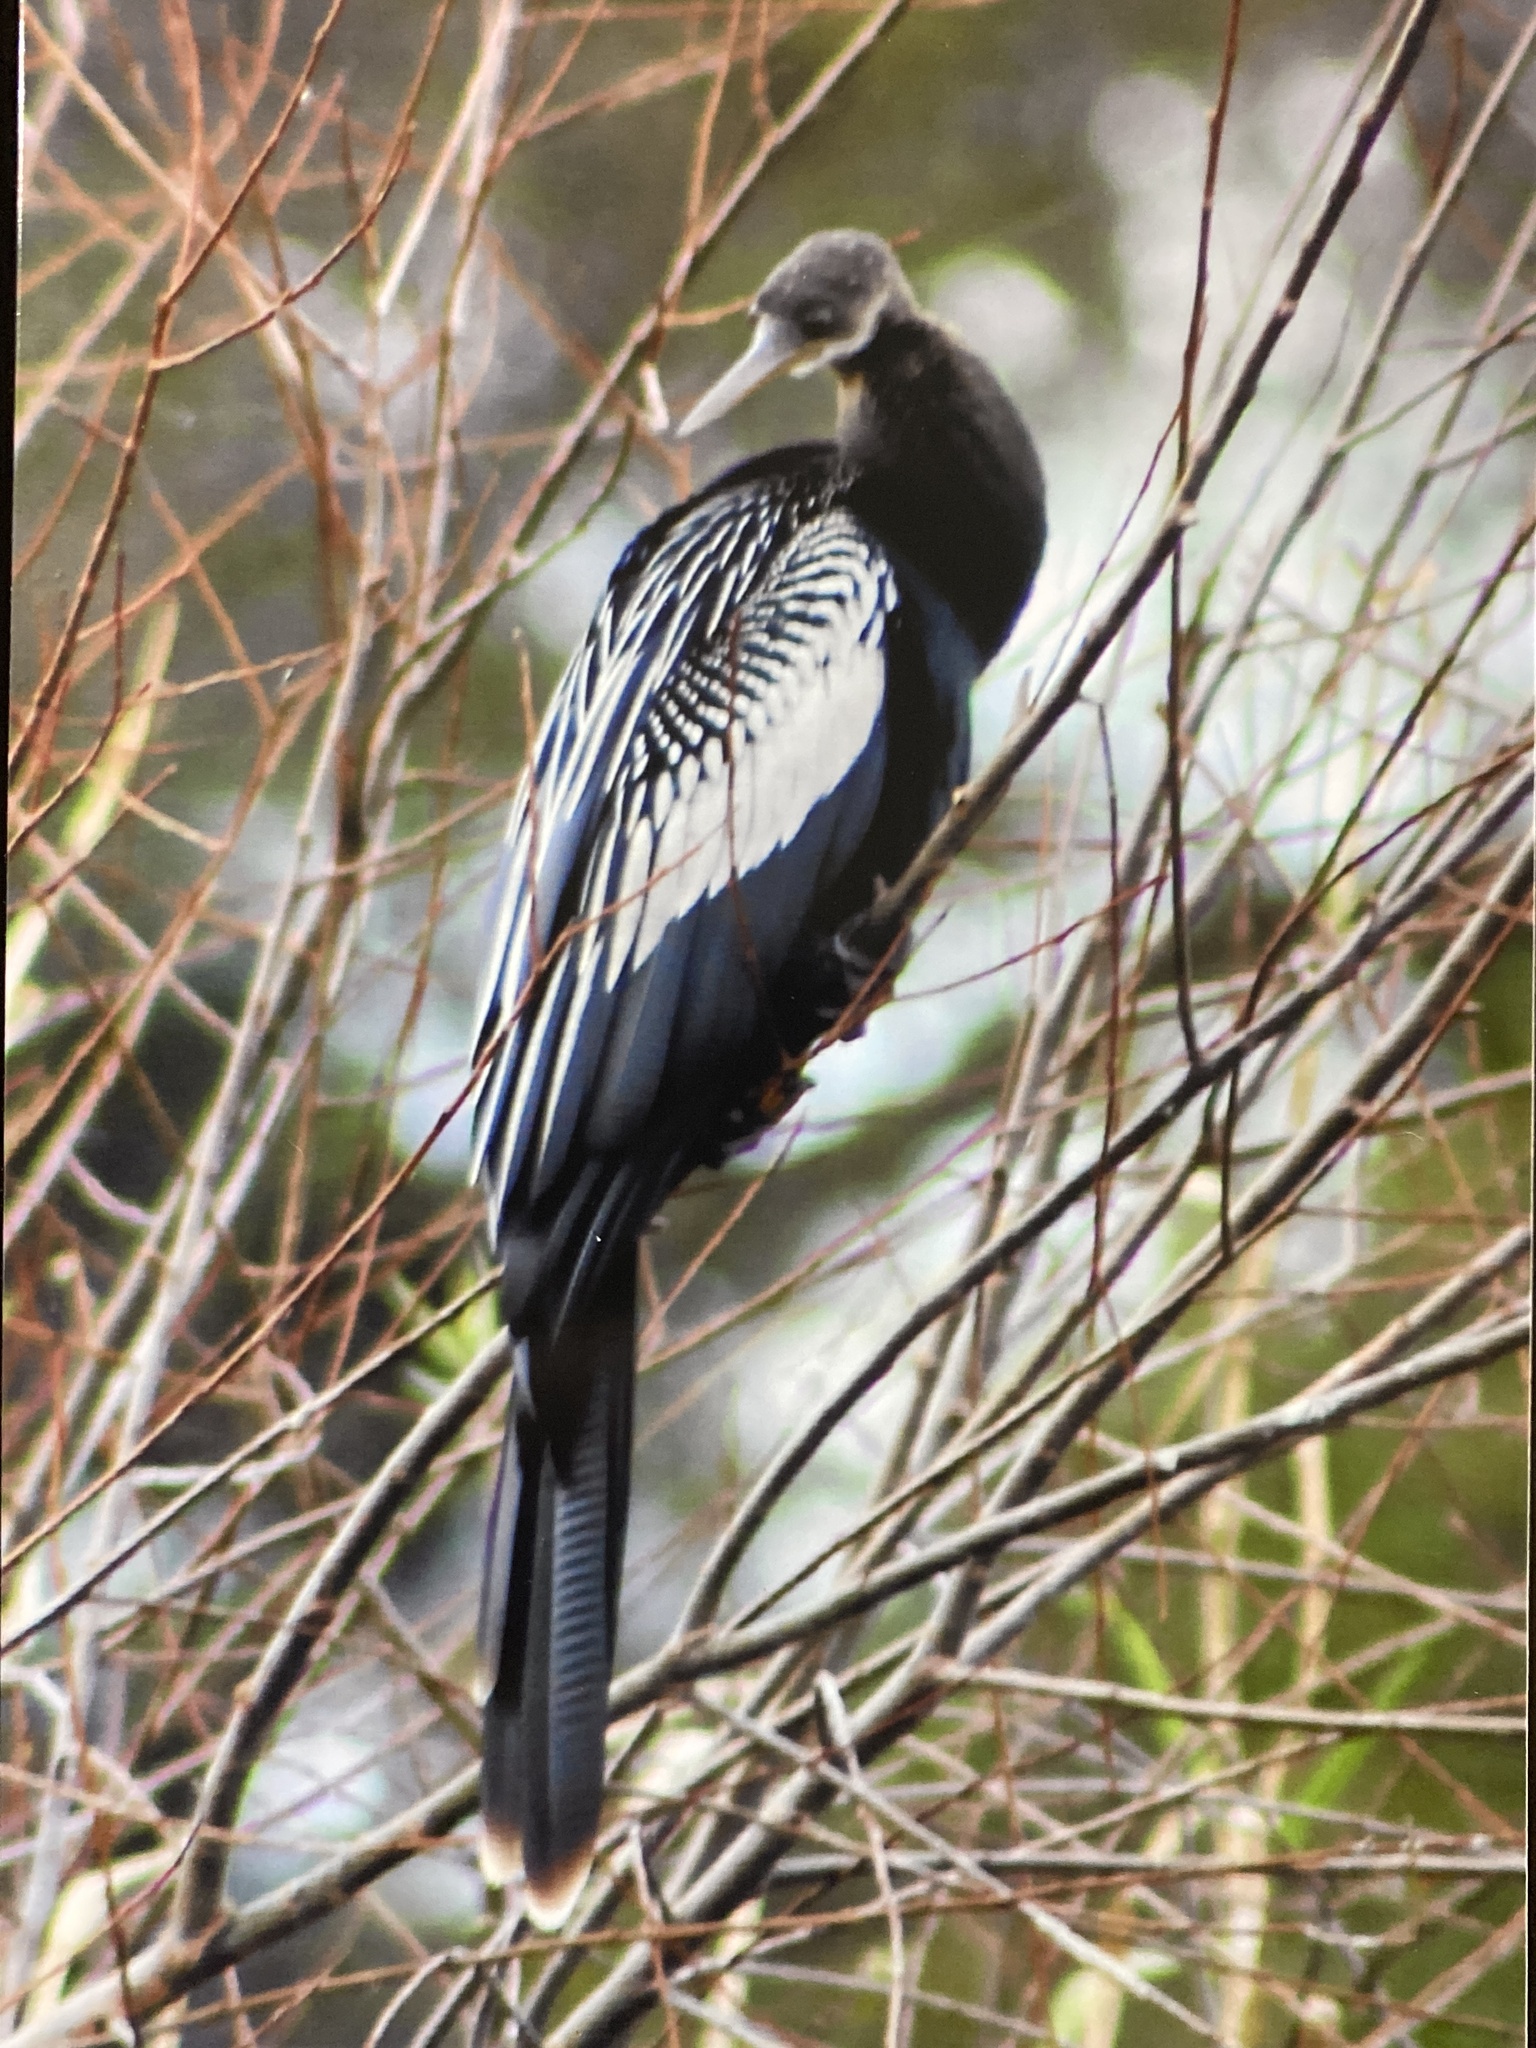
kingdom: Animalia
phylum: Chordata
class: Aves
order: Suliformes
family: Anhingidae
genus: Anhinga
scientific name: Anhinga anhinga
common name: Anhinga
